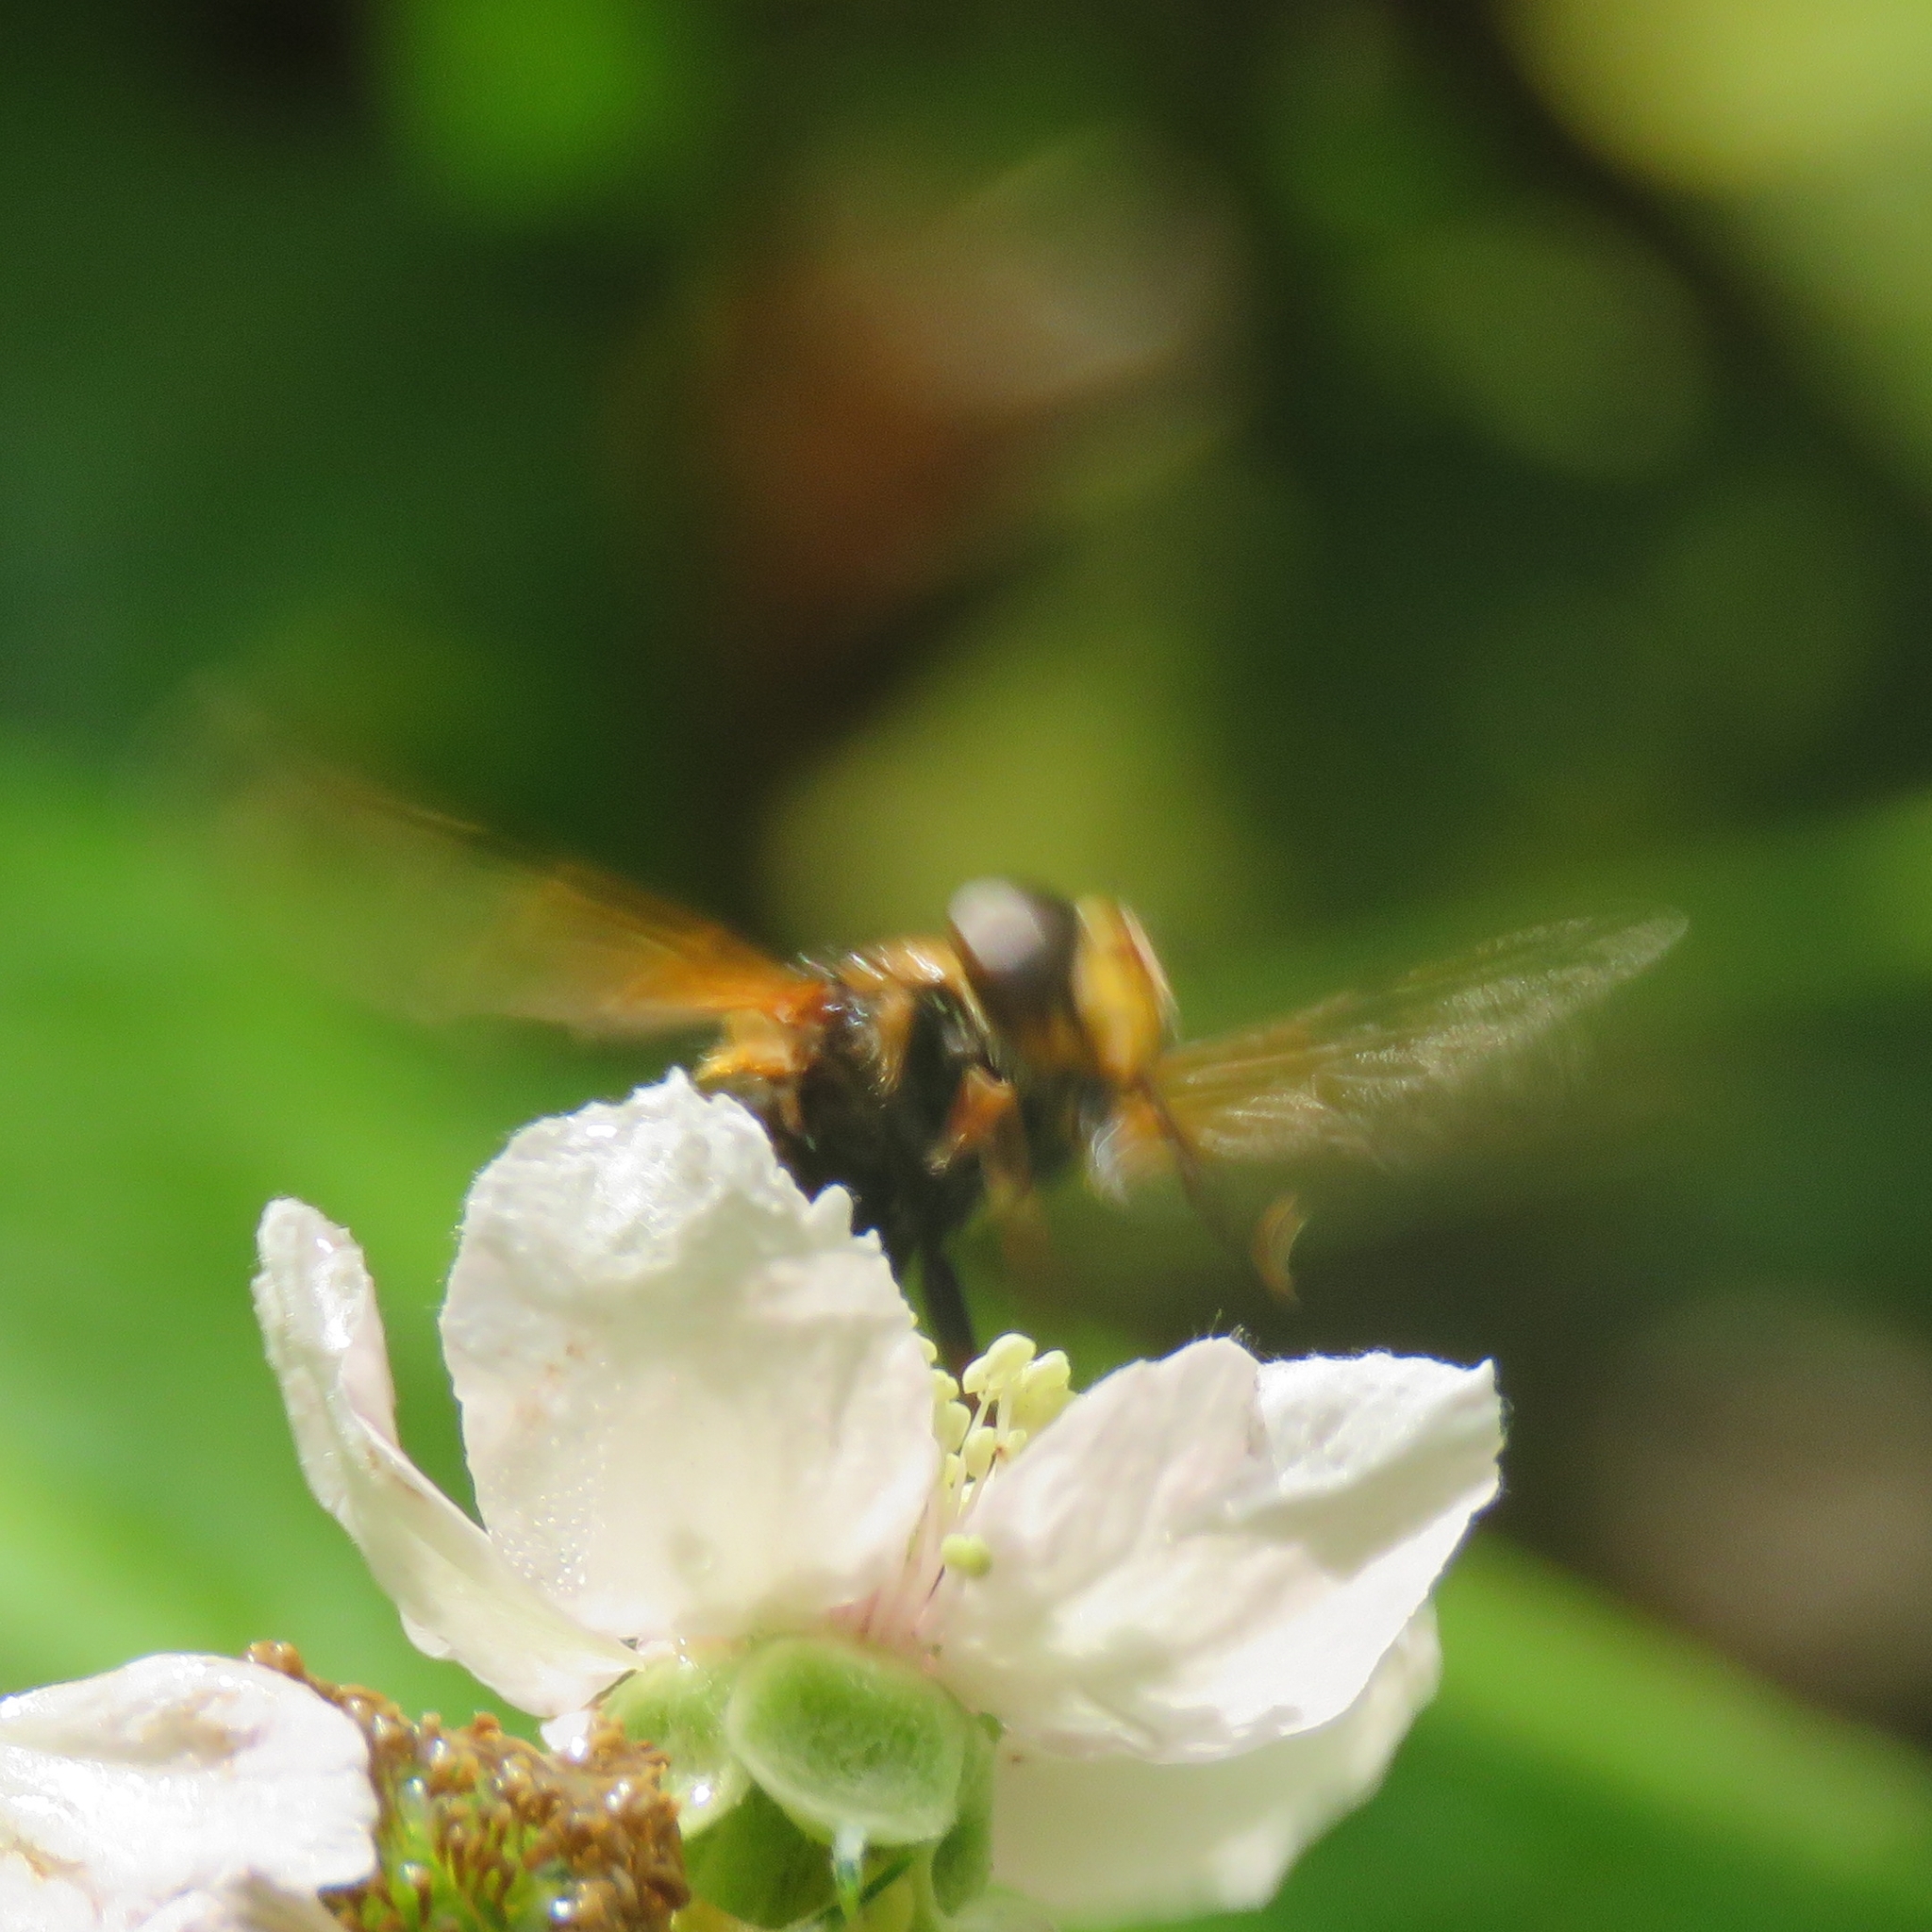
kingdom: Animalia
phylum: Arthropoda
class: Insecta
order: Diptera
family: Syrphidae
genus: Volucella
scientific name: Volucella inanis
